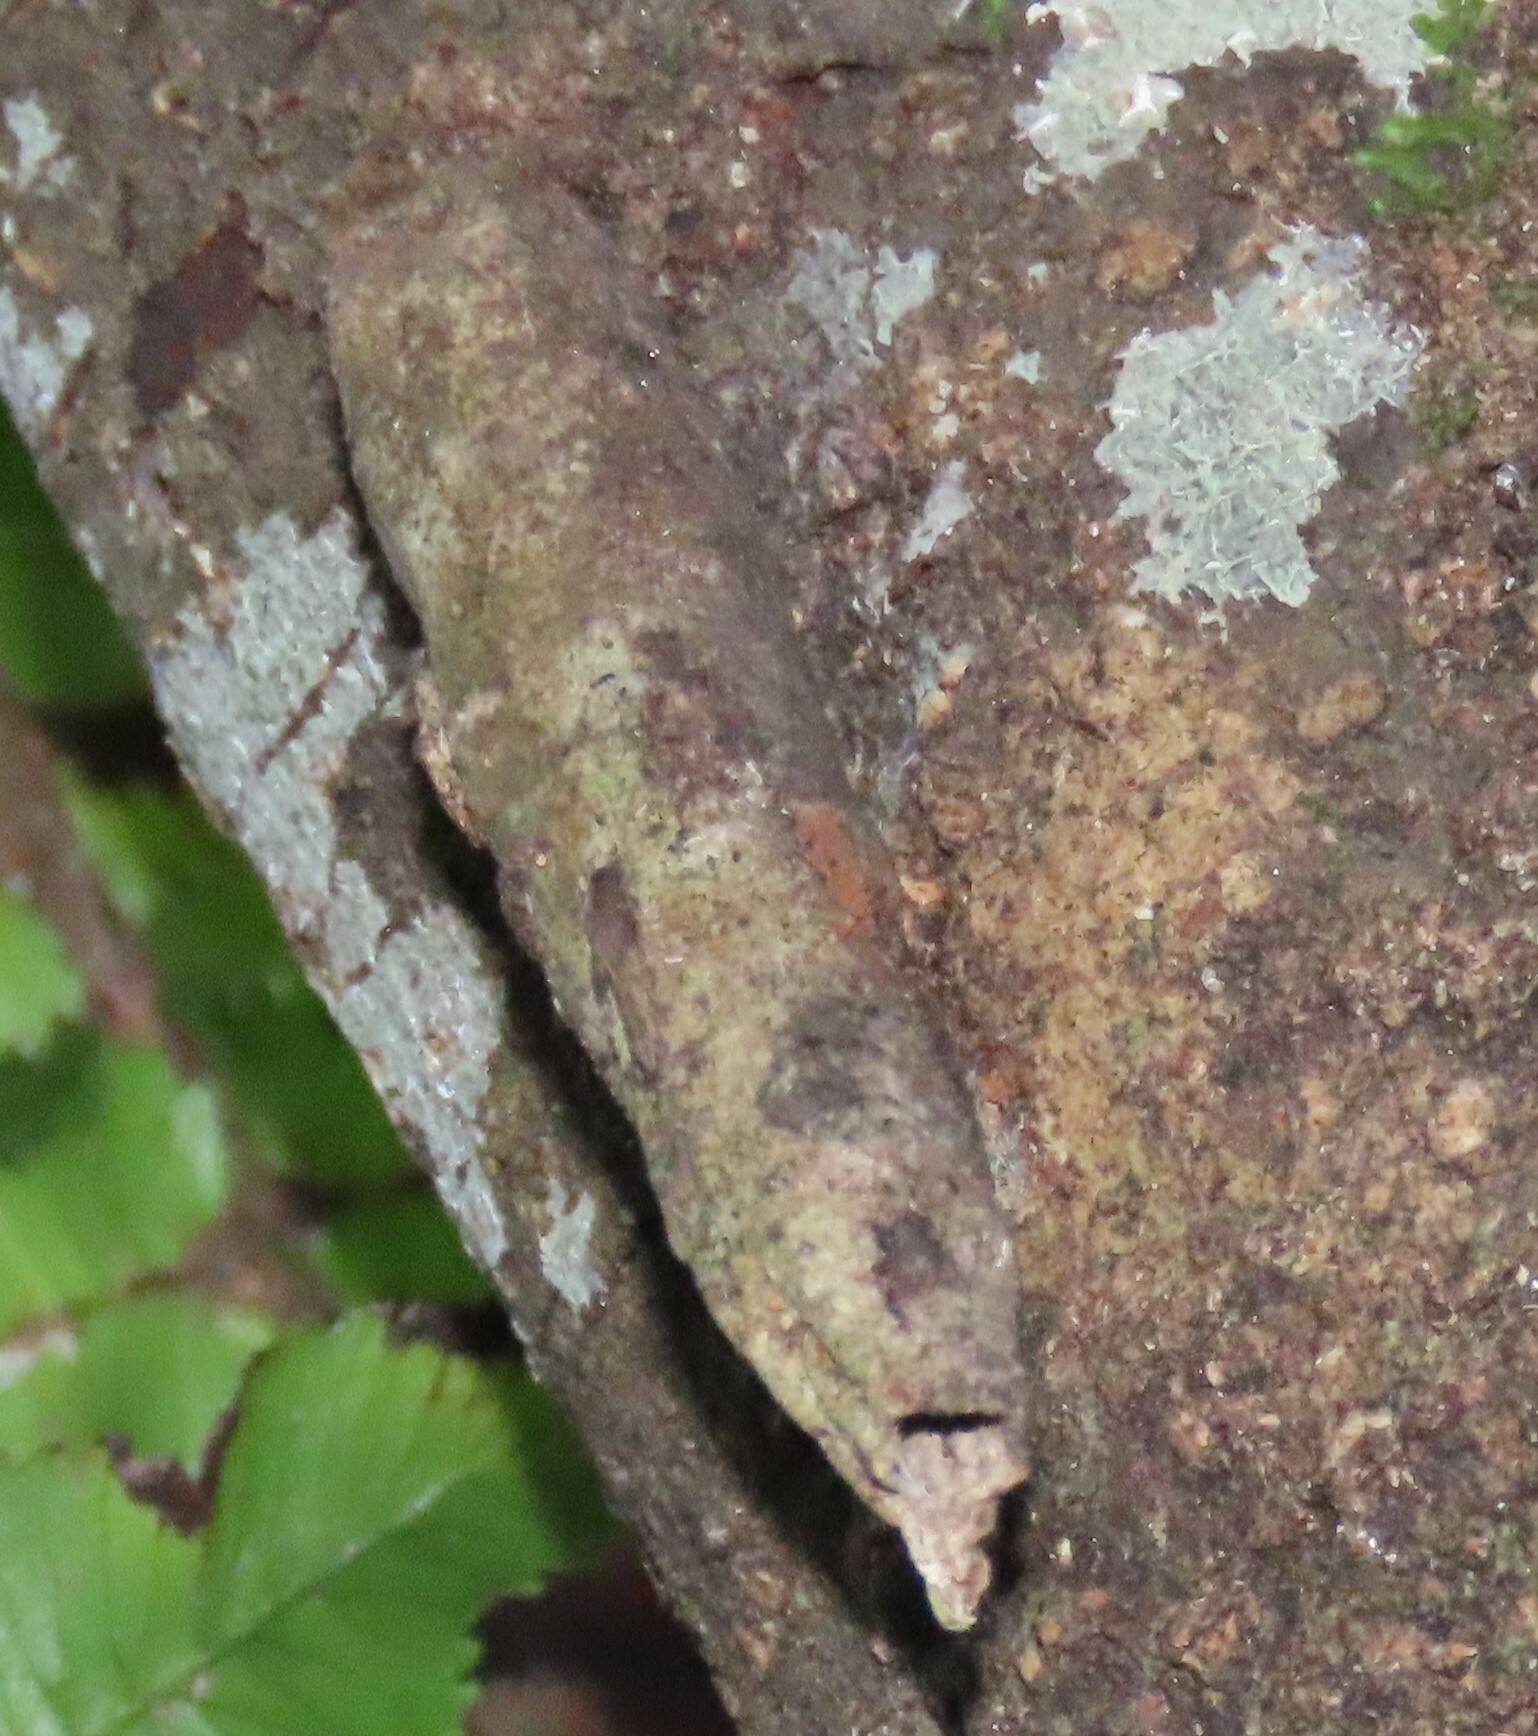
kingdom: Animalia
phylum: Arthropoda
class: Insecta
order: Lepidoptera
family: Psychidae
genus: Liothula
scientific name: Liothula omnivora
